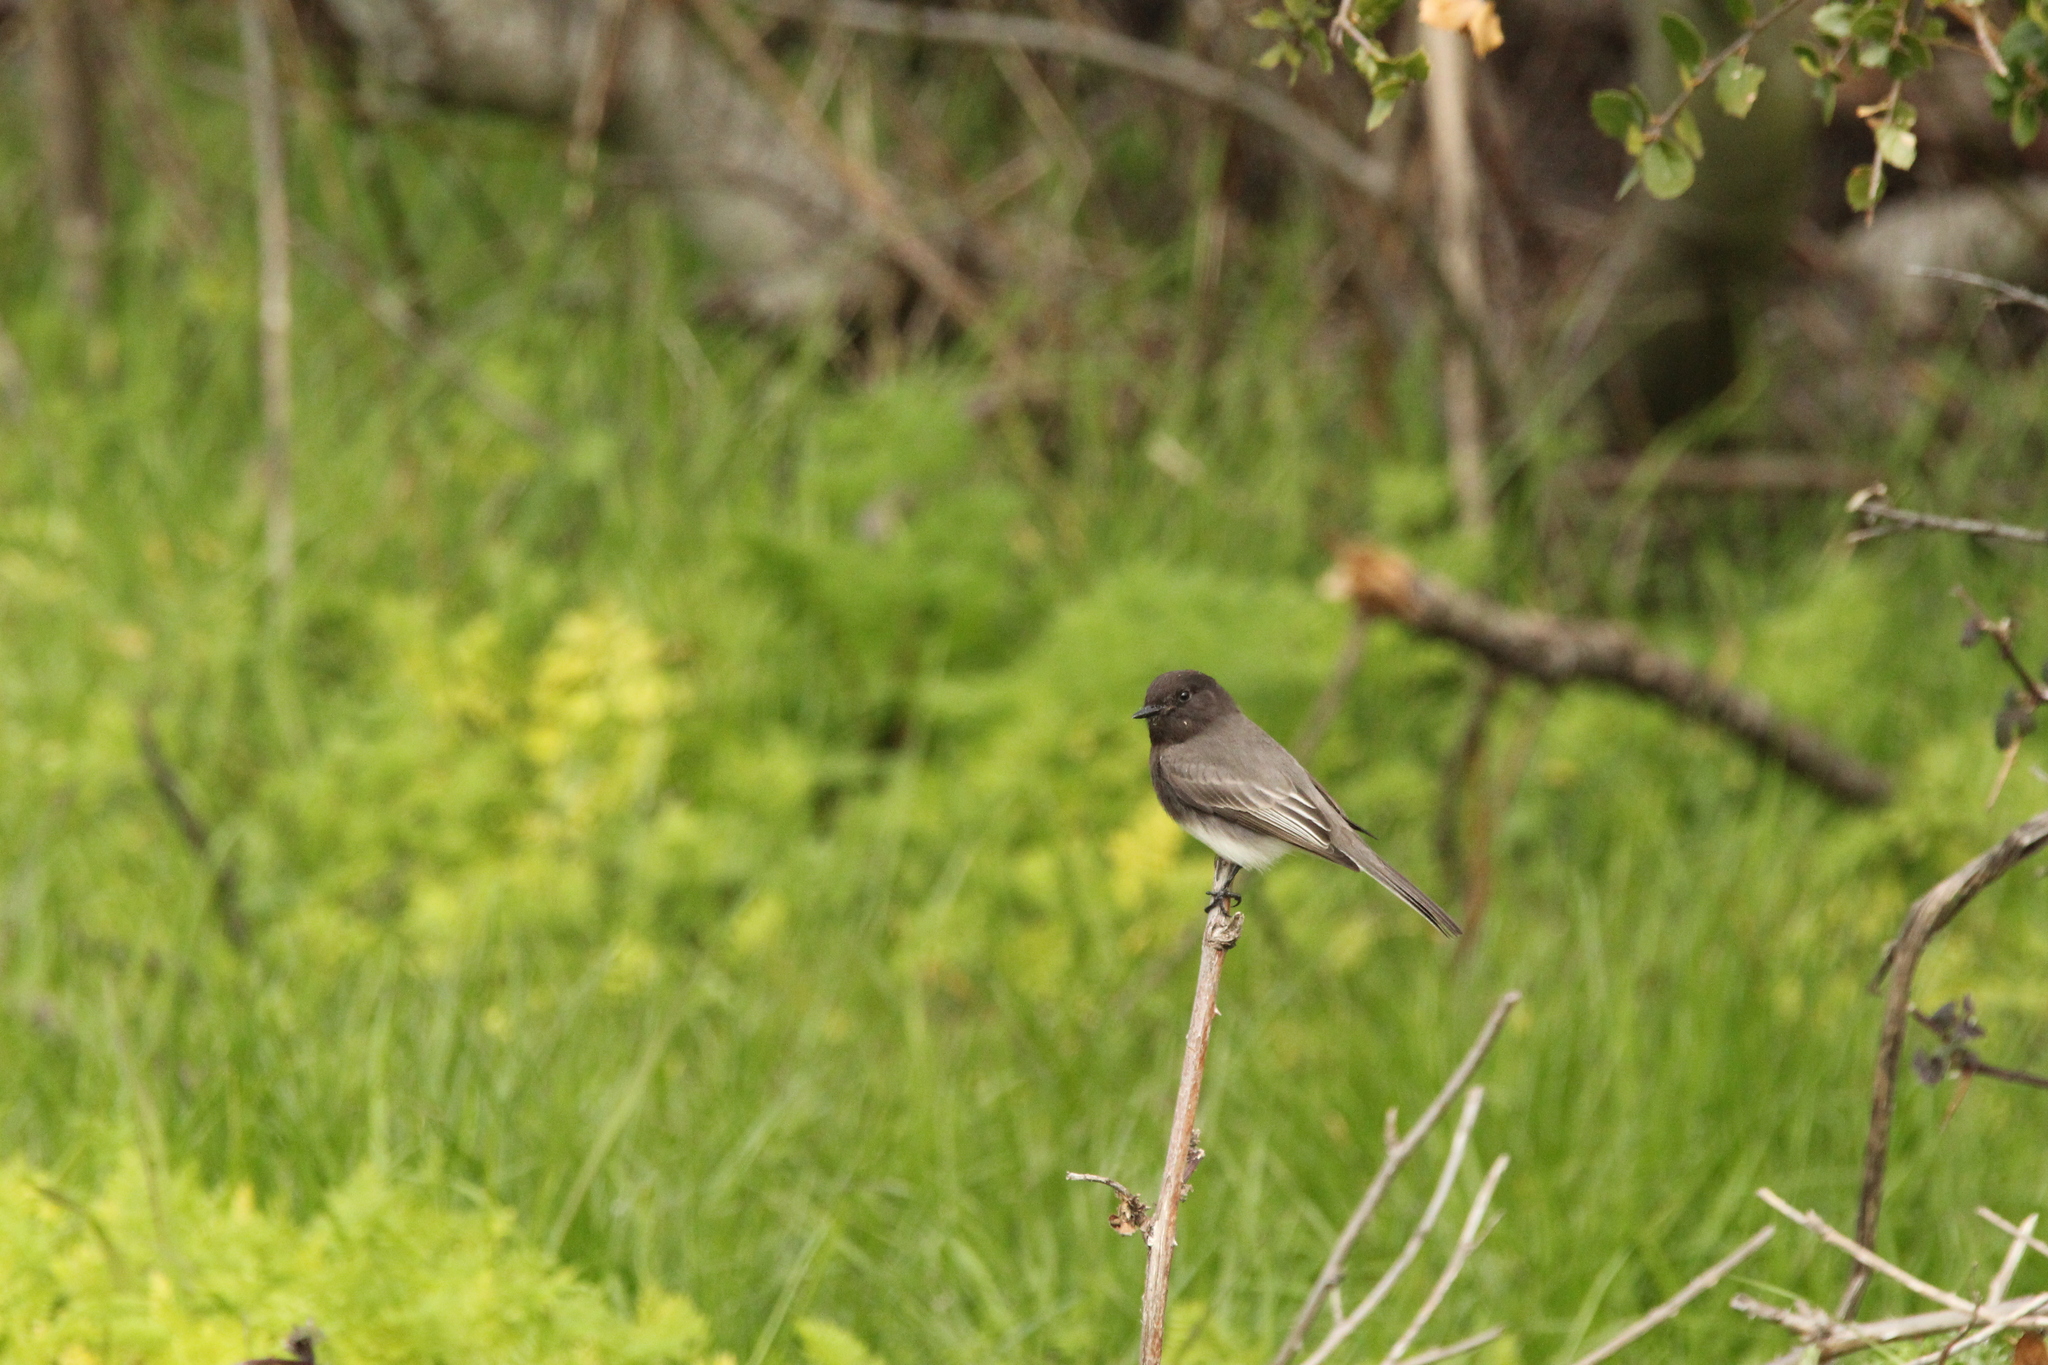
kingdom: Animalia
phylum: Chordata
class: Aves
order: Passeriformes
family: Tyrannidae
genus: Sayornis
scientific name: Sayornis nigricans
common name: Black phoebe
